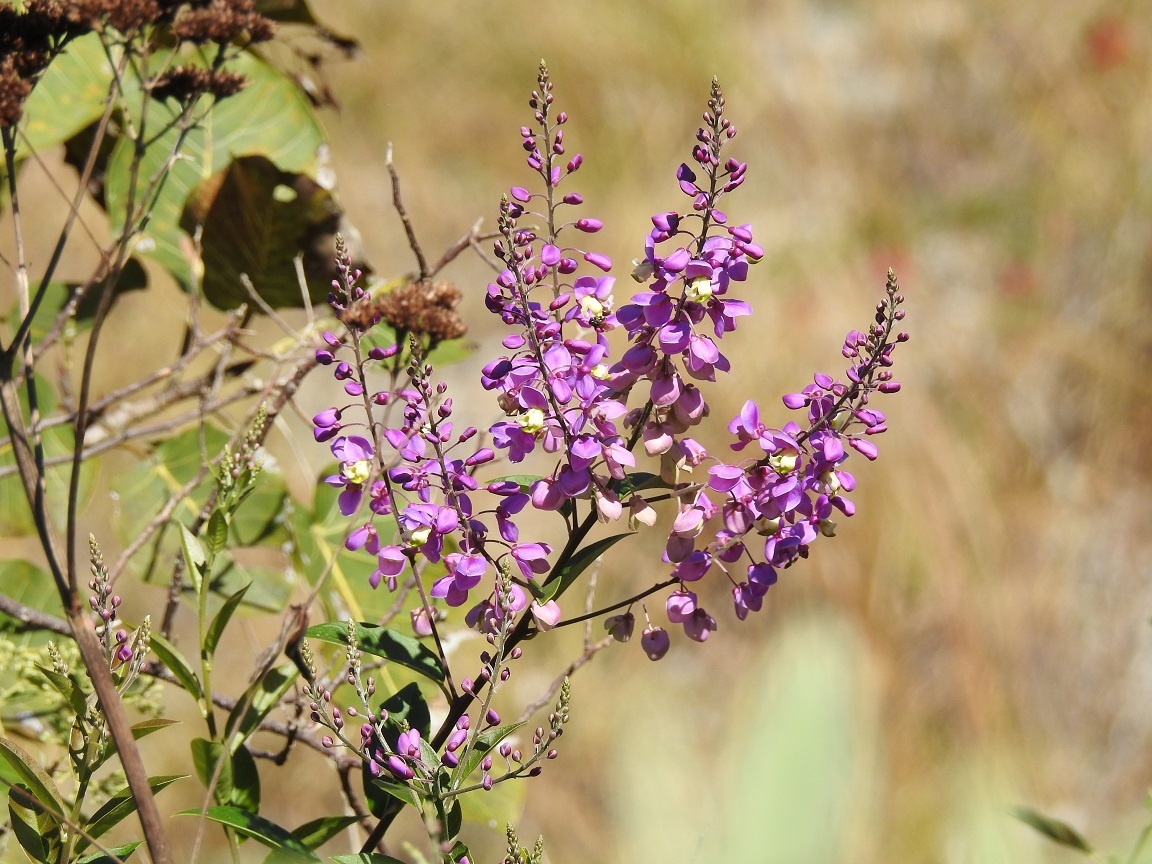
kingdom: Plantae
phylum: Tracheophyta
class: Magnoliopsida
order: Fabales
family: Polygalaceae
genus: Asemeia
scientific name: Asemeia floribunda
